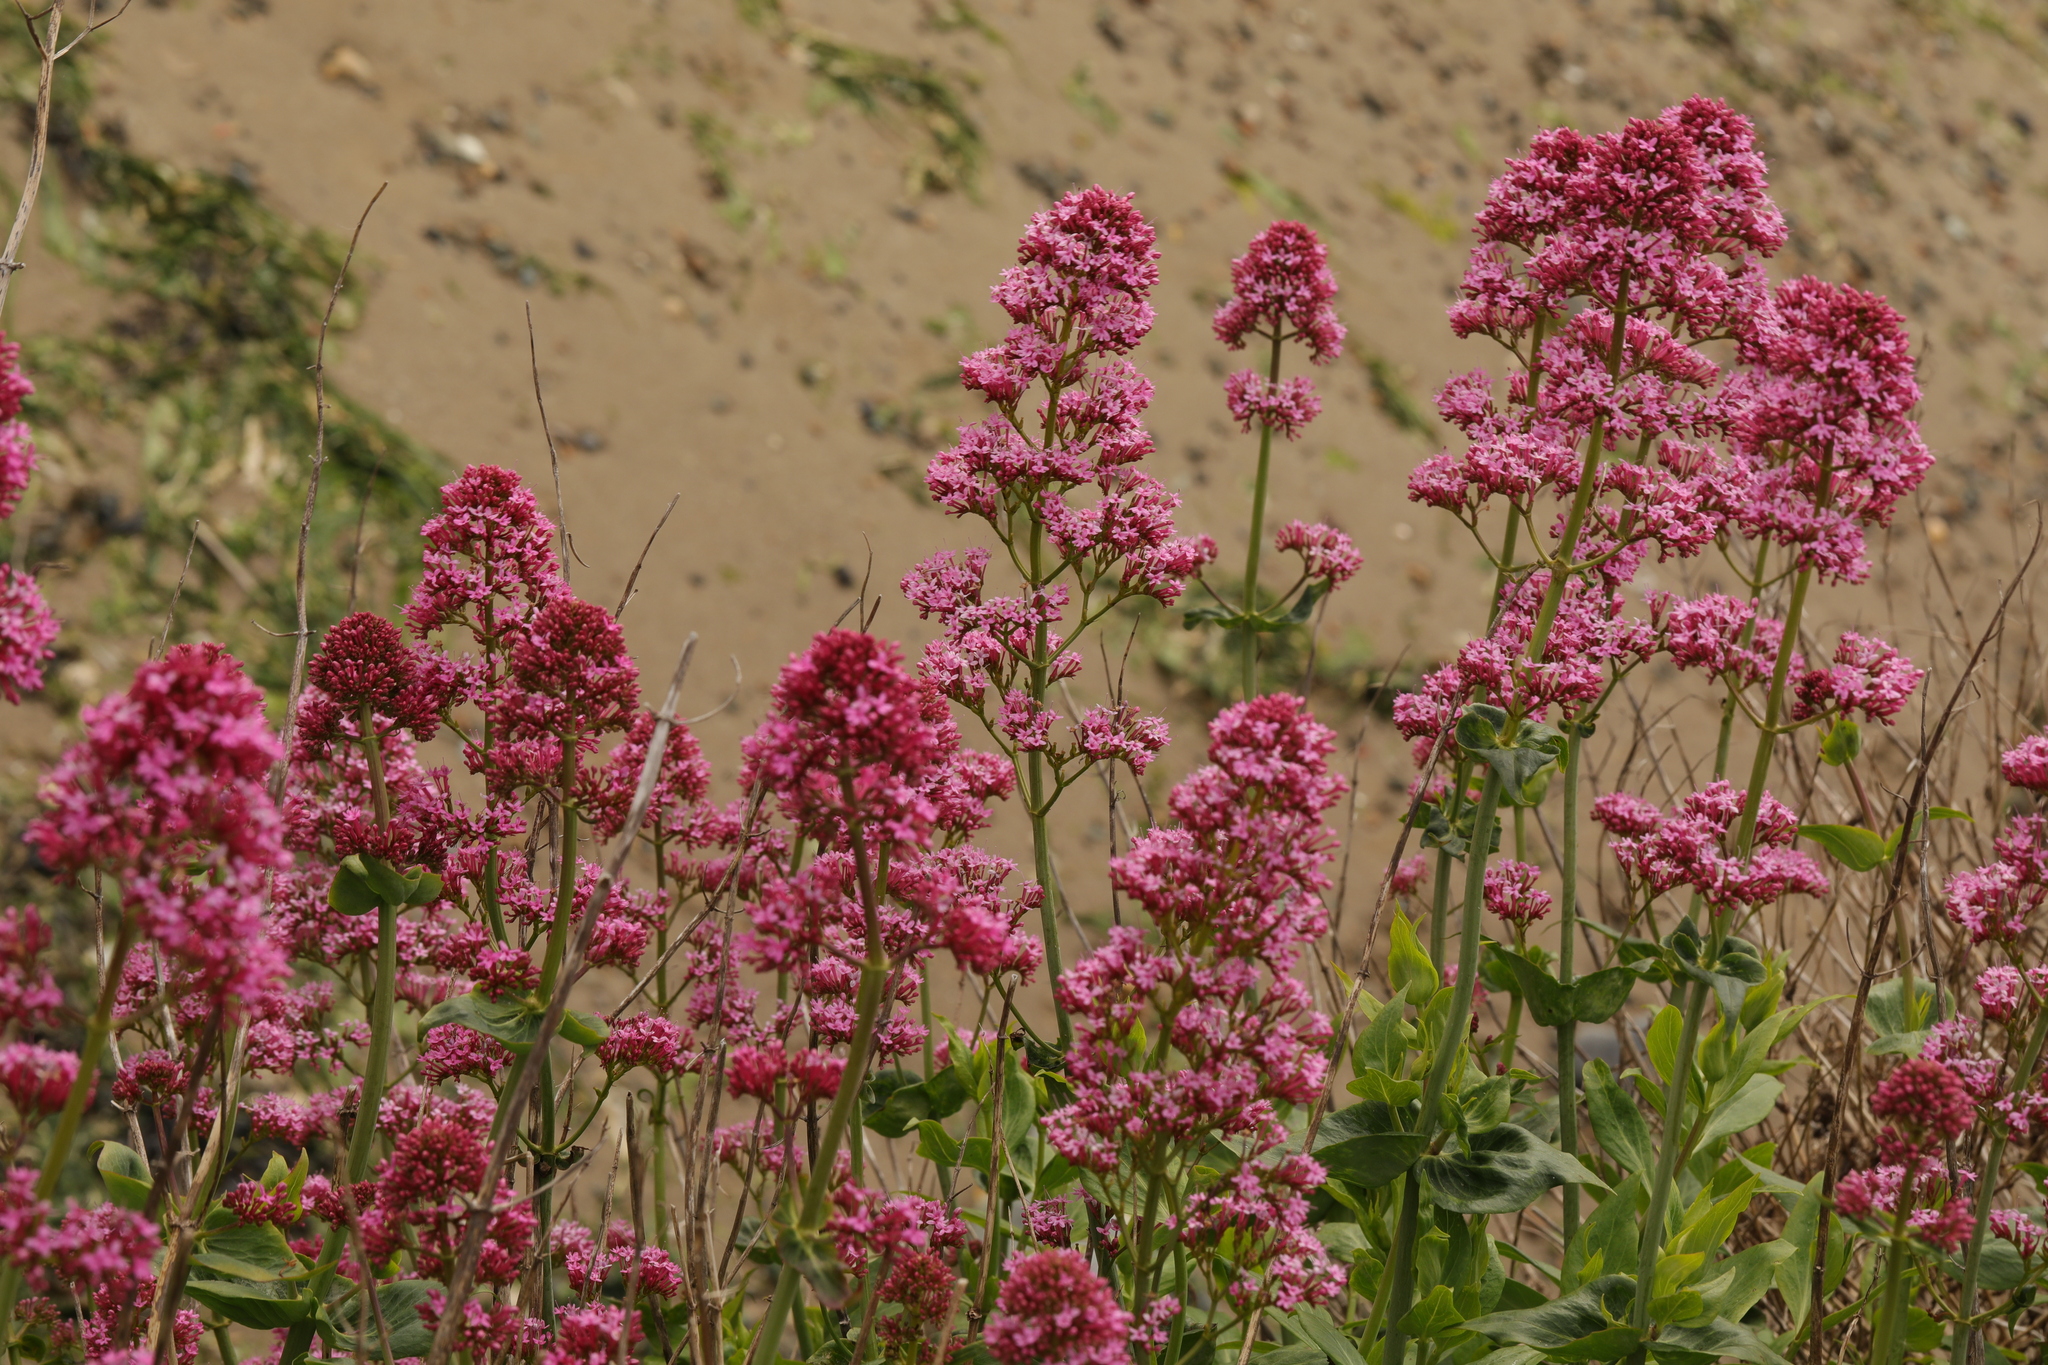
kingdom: Plantae
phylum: Tracheophyta
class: Magnoliopsida
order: Dipsacales
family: Caprifoliaceae
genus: Centranthus
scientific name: Centranthus ruber
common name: Red valerian
